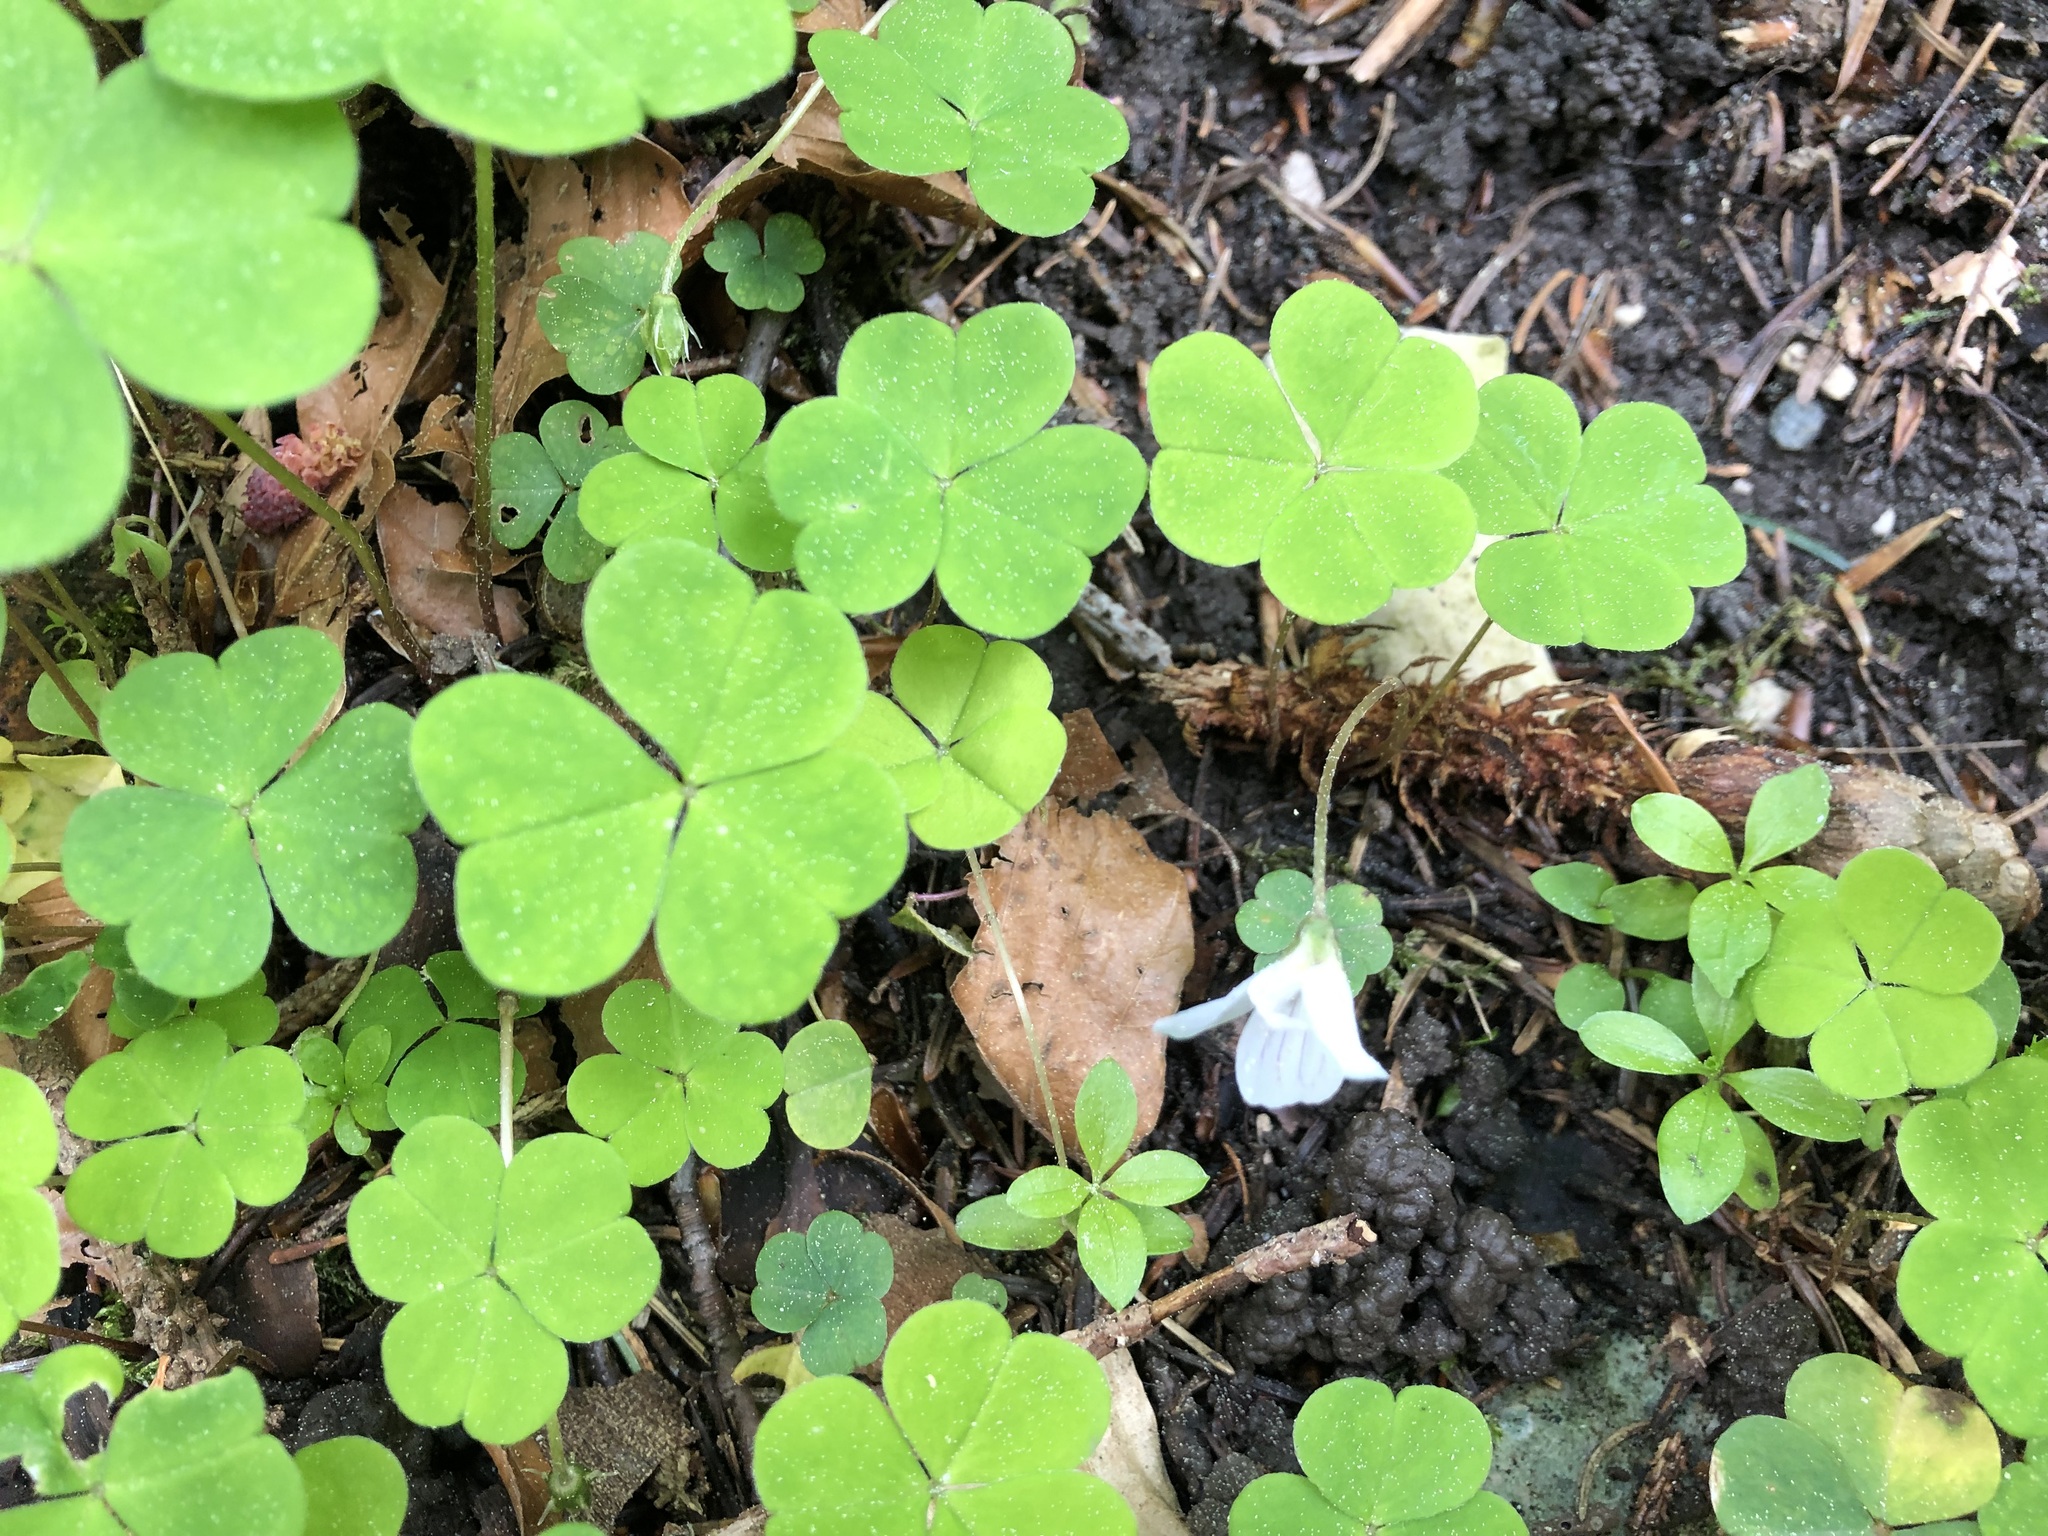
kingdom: Plantae
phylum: Tracheophyta
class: Magnoliopsida
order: Oxalidales
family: Oxalidaceae
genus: Oxalis
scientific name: Oxalis acetosella
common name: Wood-sorrel
